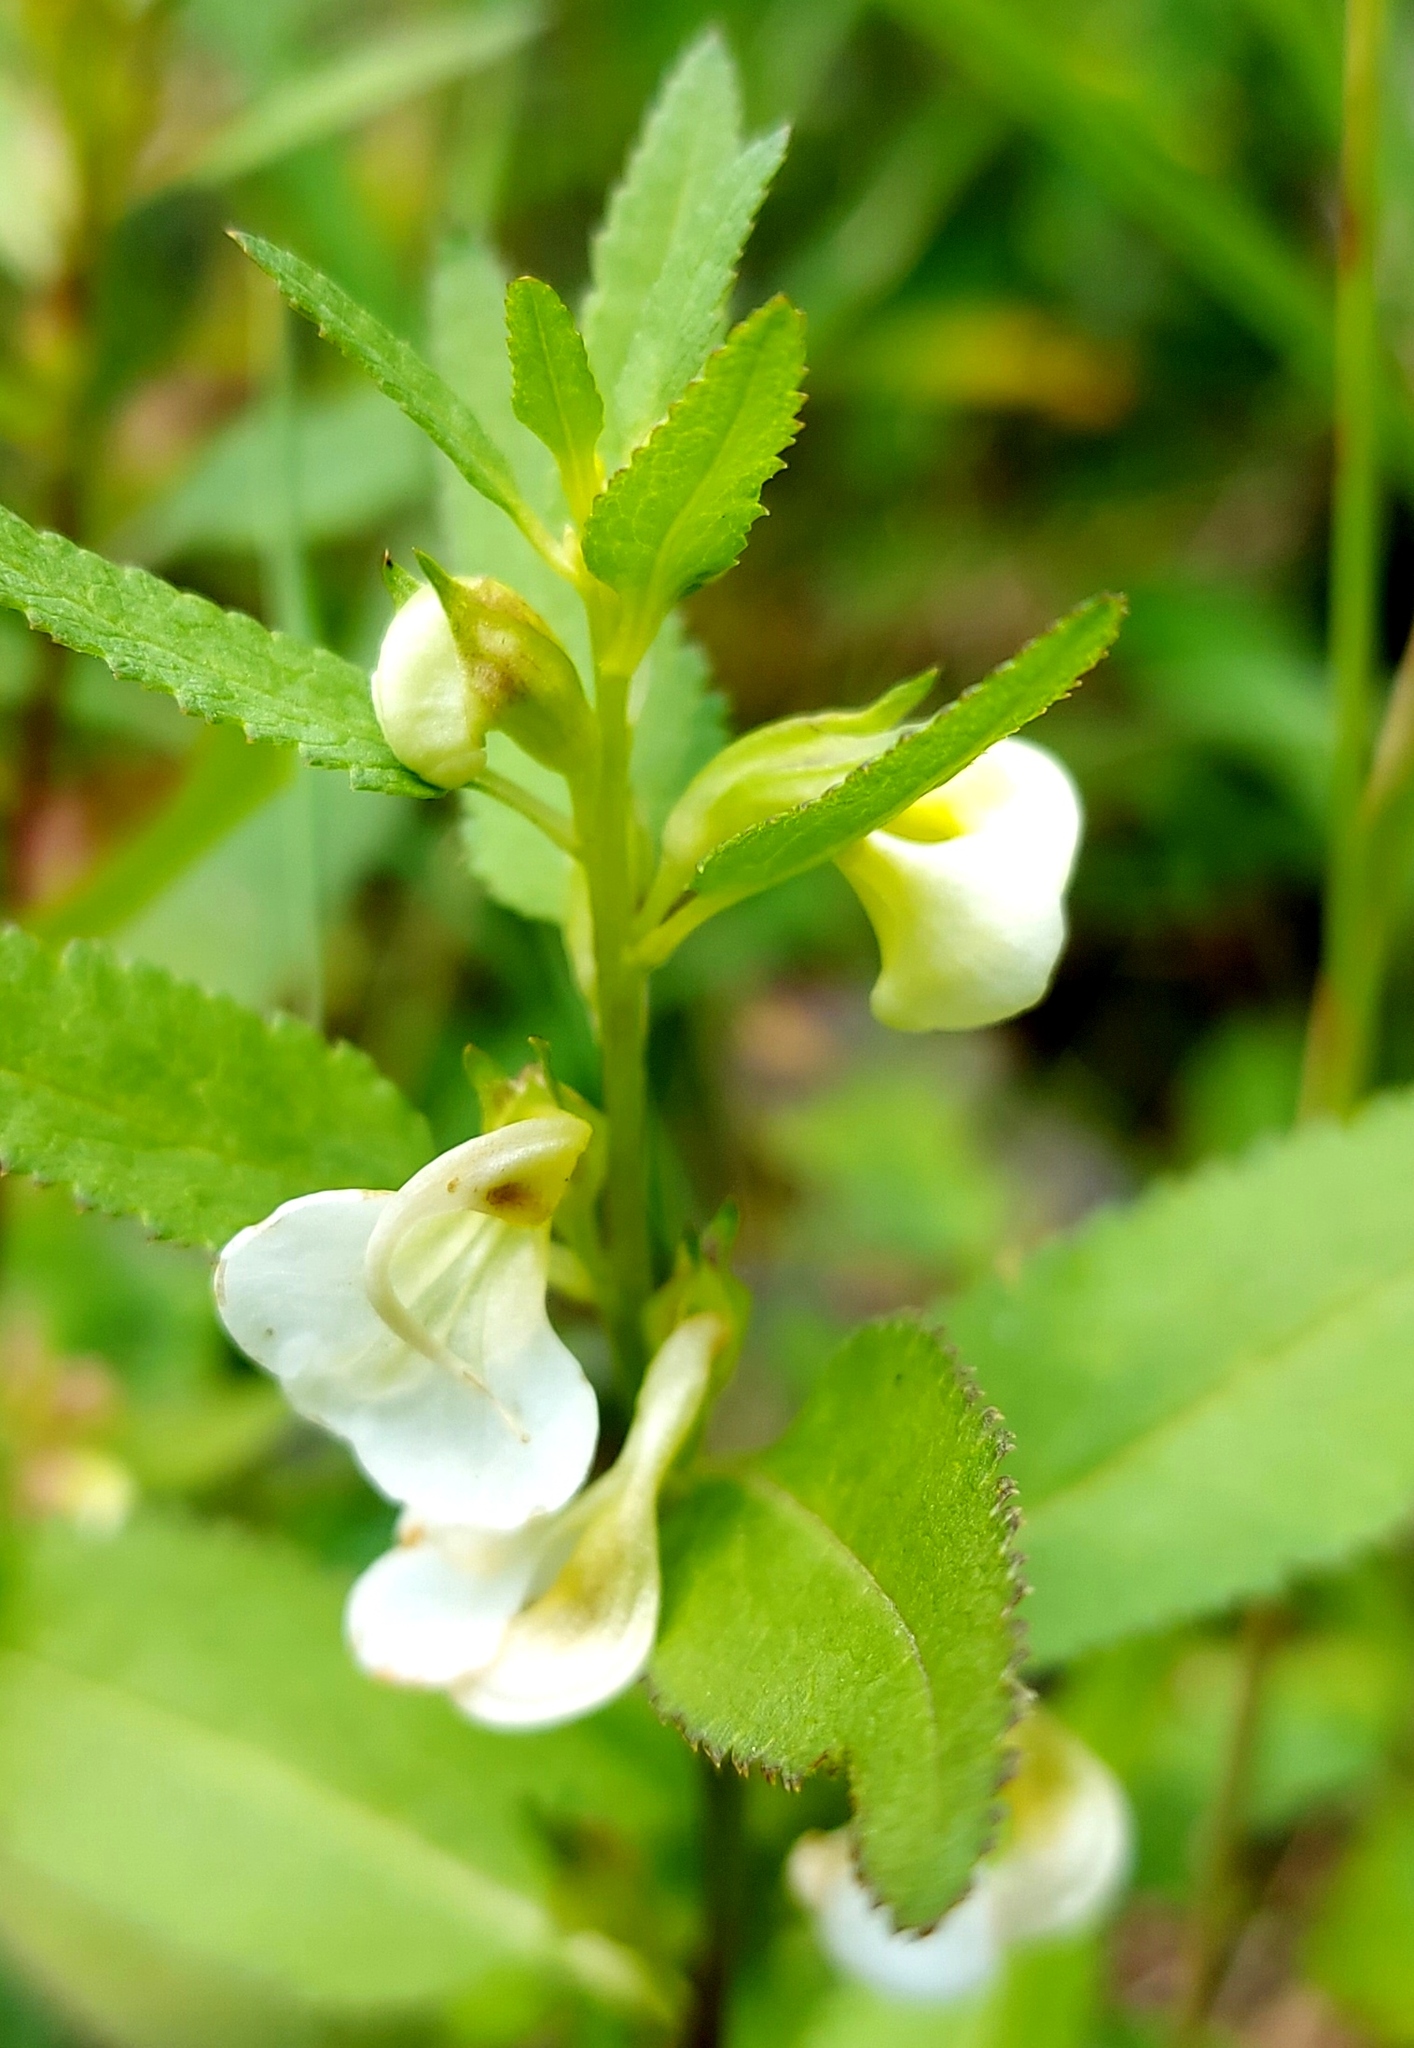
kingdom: Plantae
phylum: Tracheophyta
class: Magnoliopsida
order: Lamiales
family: Orobanchaceae
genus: Pedicularis
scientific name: Pedicularis racemosa
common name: Leafy lousewort
